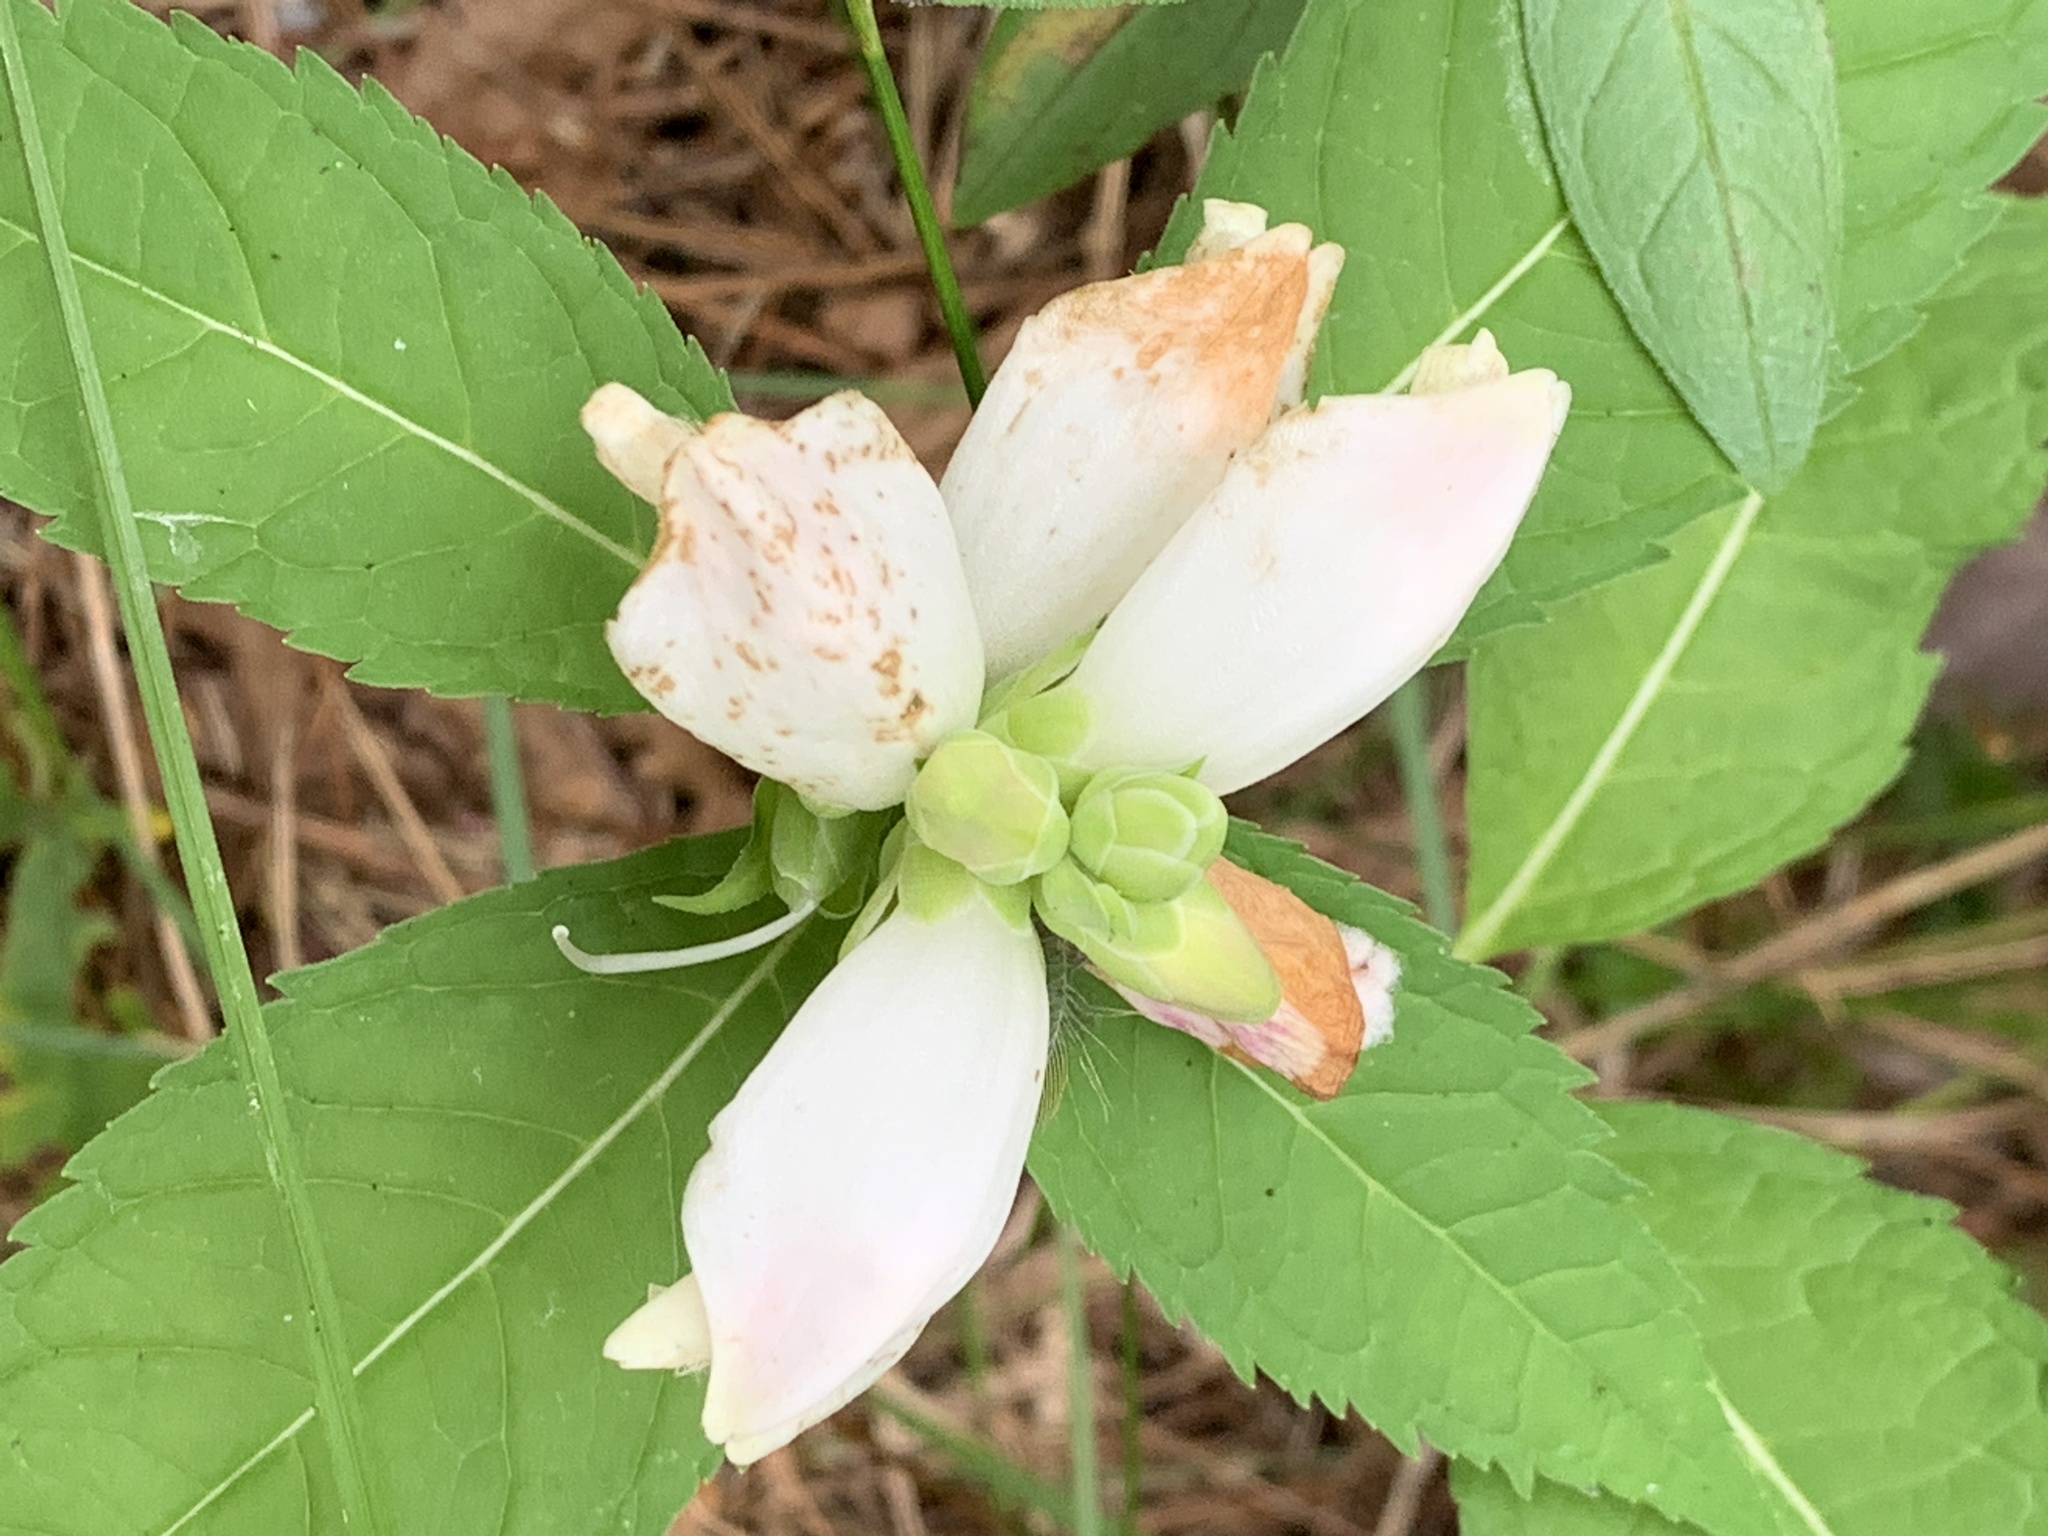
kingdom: Plantae
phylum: Tracheophyta
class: Magnoliopsida
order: Lamiales
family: Plantaginaceae
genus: Chelone
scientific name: Chelone glabra
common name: Snakehead
